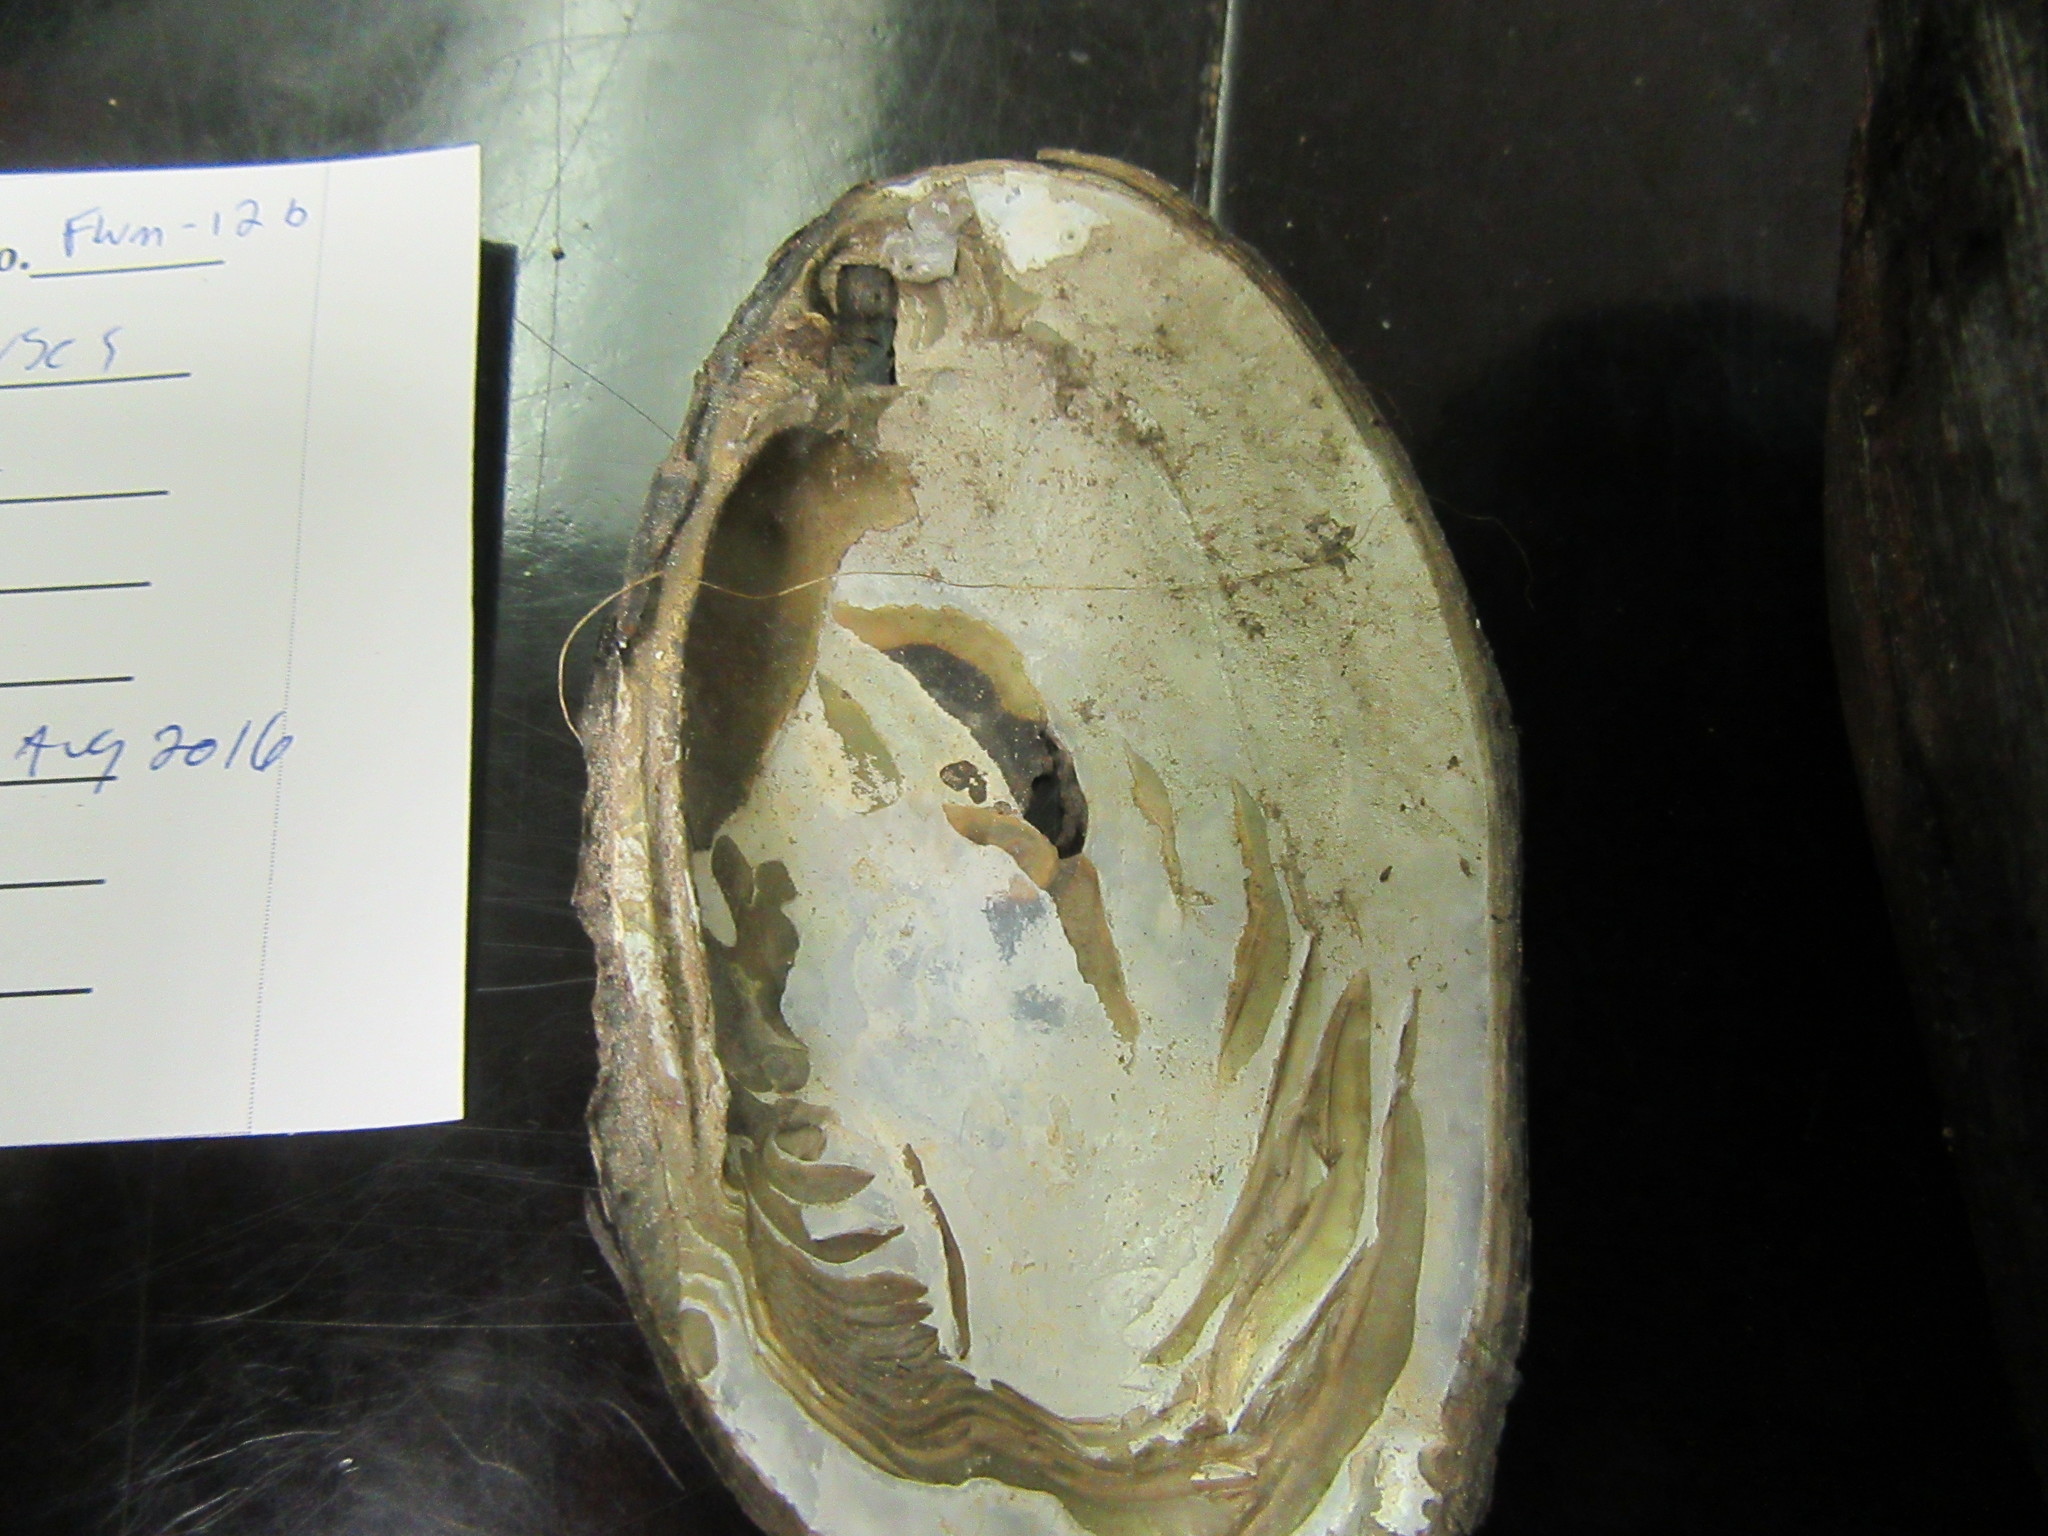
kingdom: Animalia
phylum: Mollusca
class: Bivalvia
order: Unionida
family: Unionidae
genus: Elliptio
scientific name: Elliptio complanata
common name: Eastern elliptio
